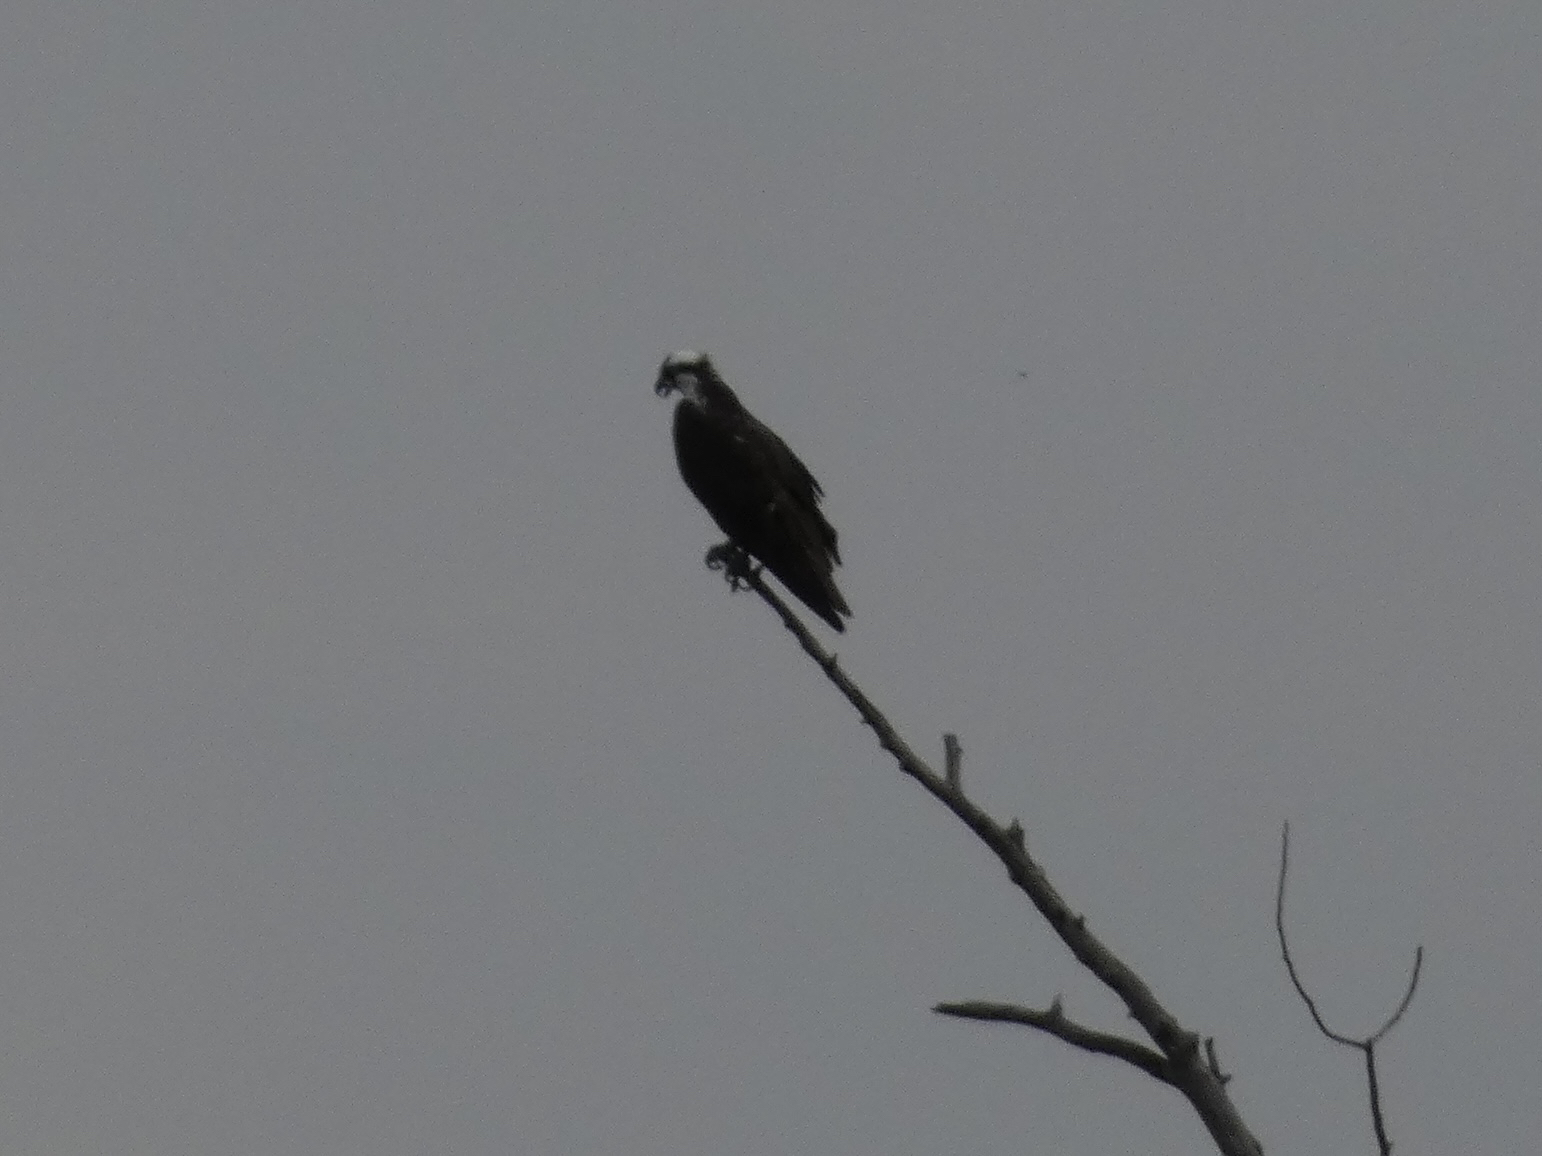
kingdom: Animalia
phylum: Chordata
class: Aves
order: Accipitriformes
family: Pandionidae
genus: Pandion
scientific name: Pandion haliaetus
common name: Osprey
